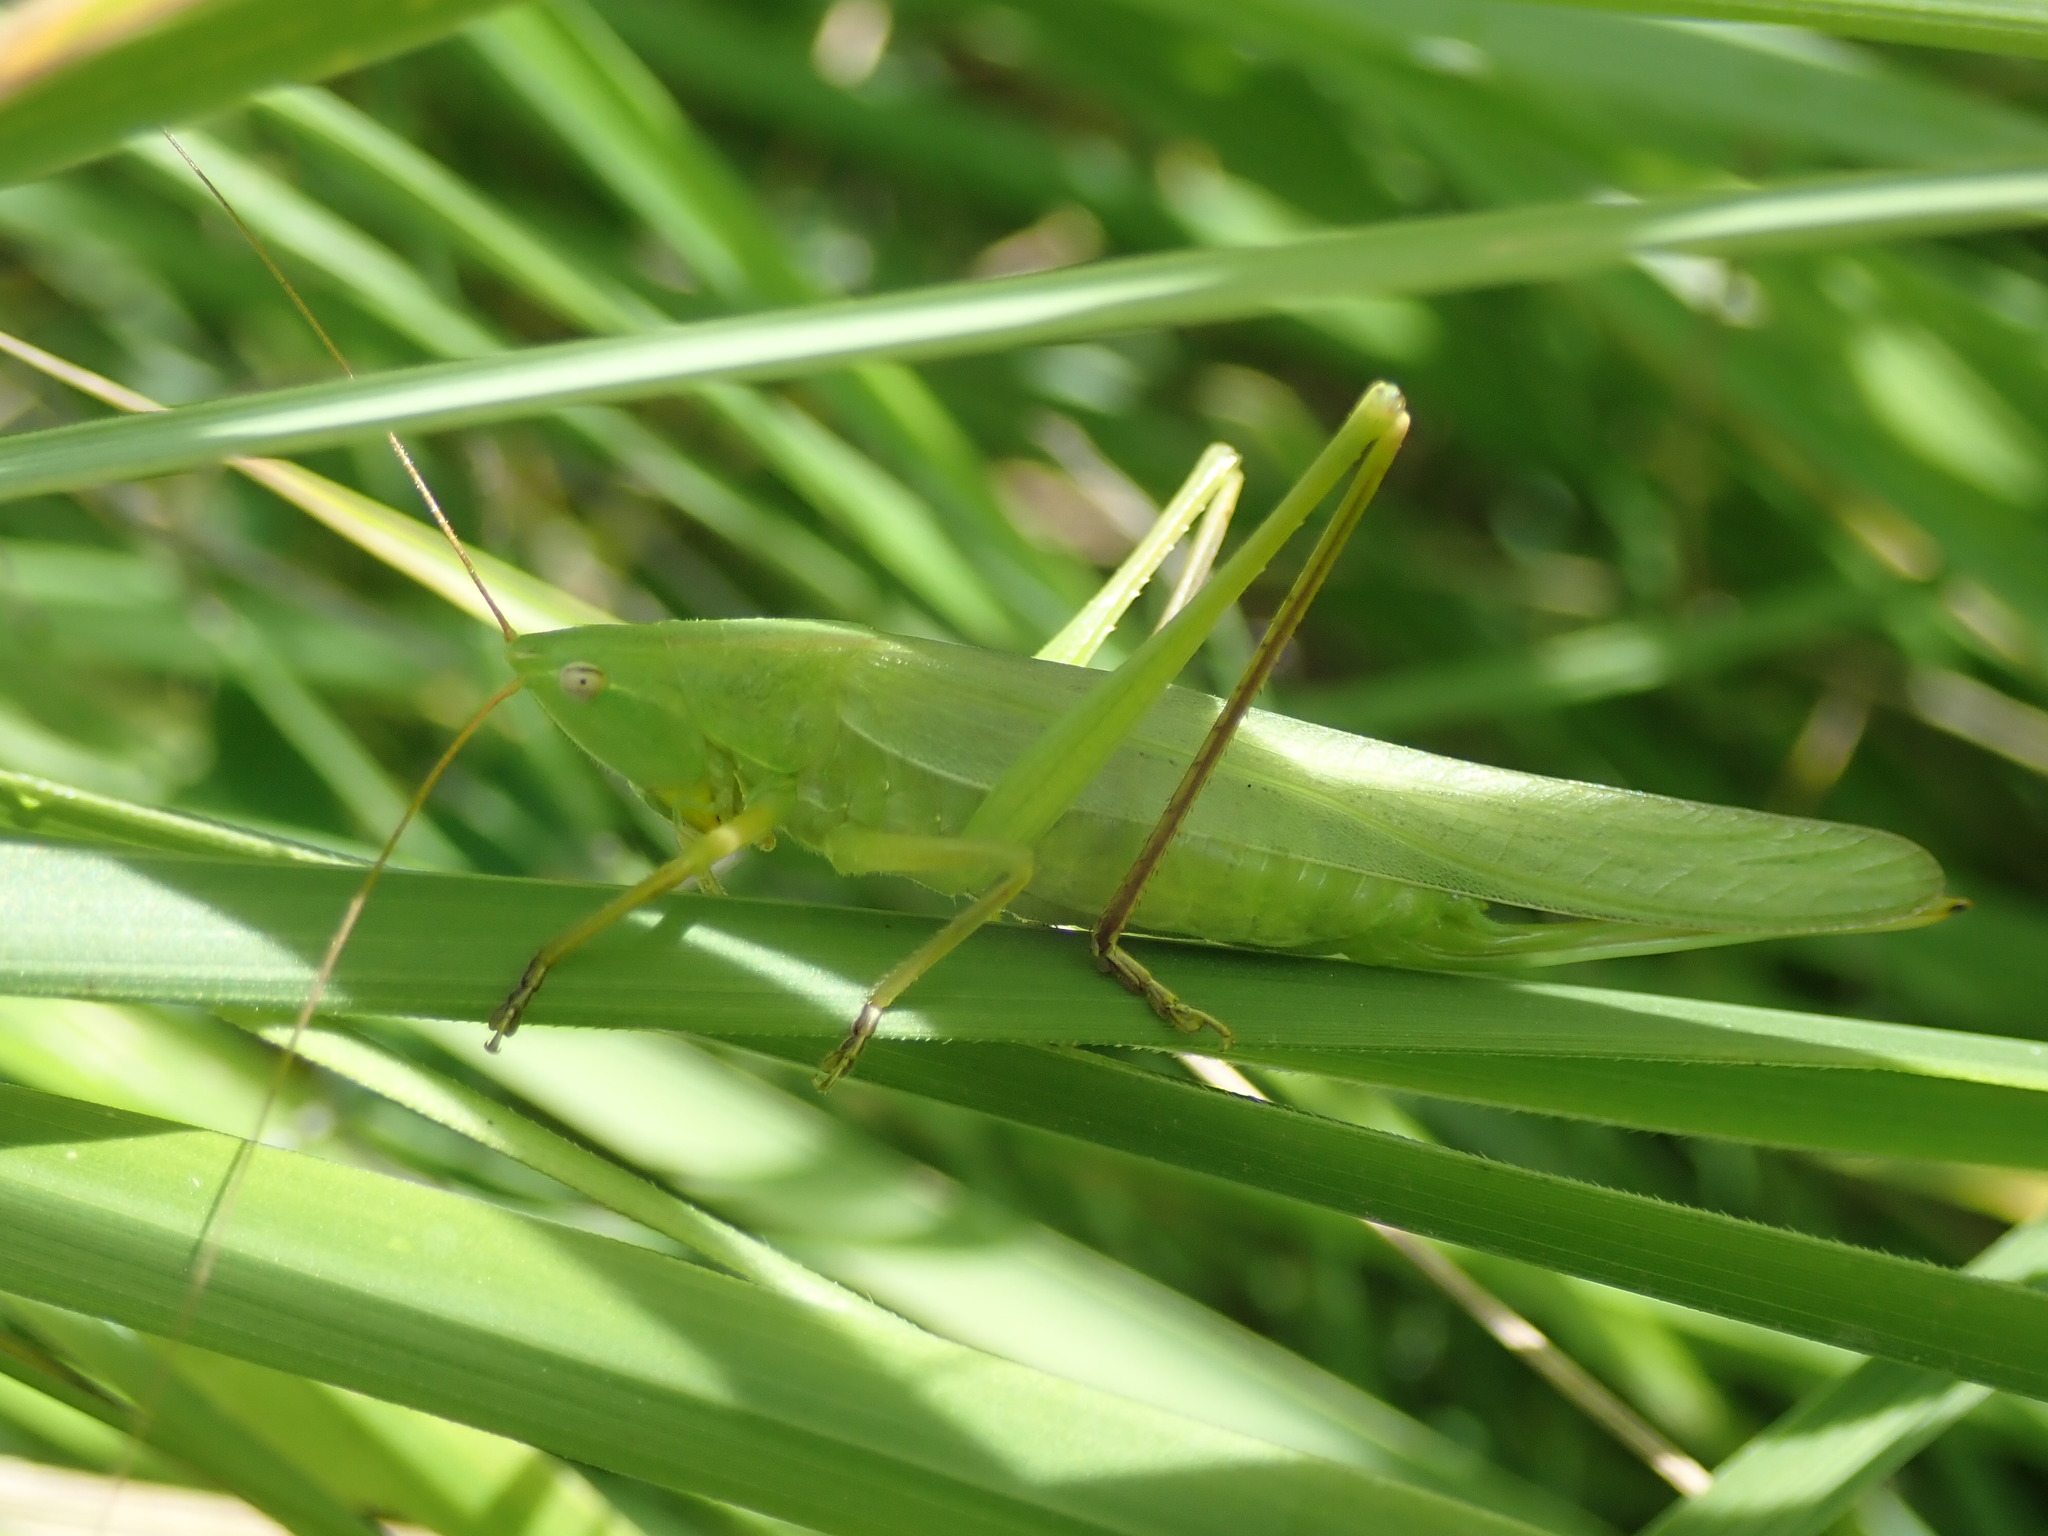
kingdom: Animalia
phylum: Arthropoda
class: Insecta
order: Orthoptera
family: Tettigoniidae
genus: Ruspolia
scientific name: Ruspolia nitidula
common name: Large conehead
